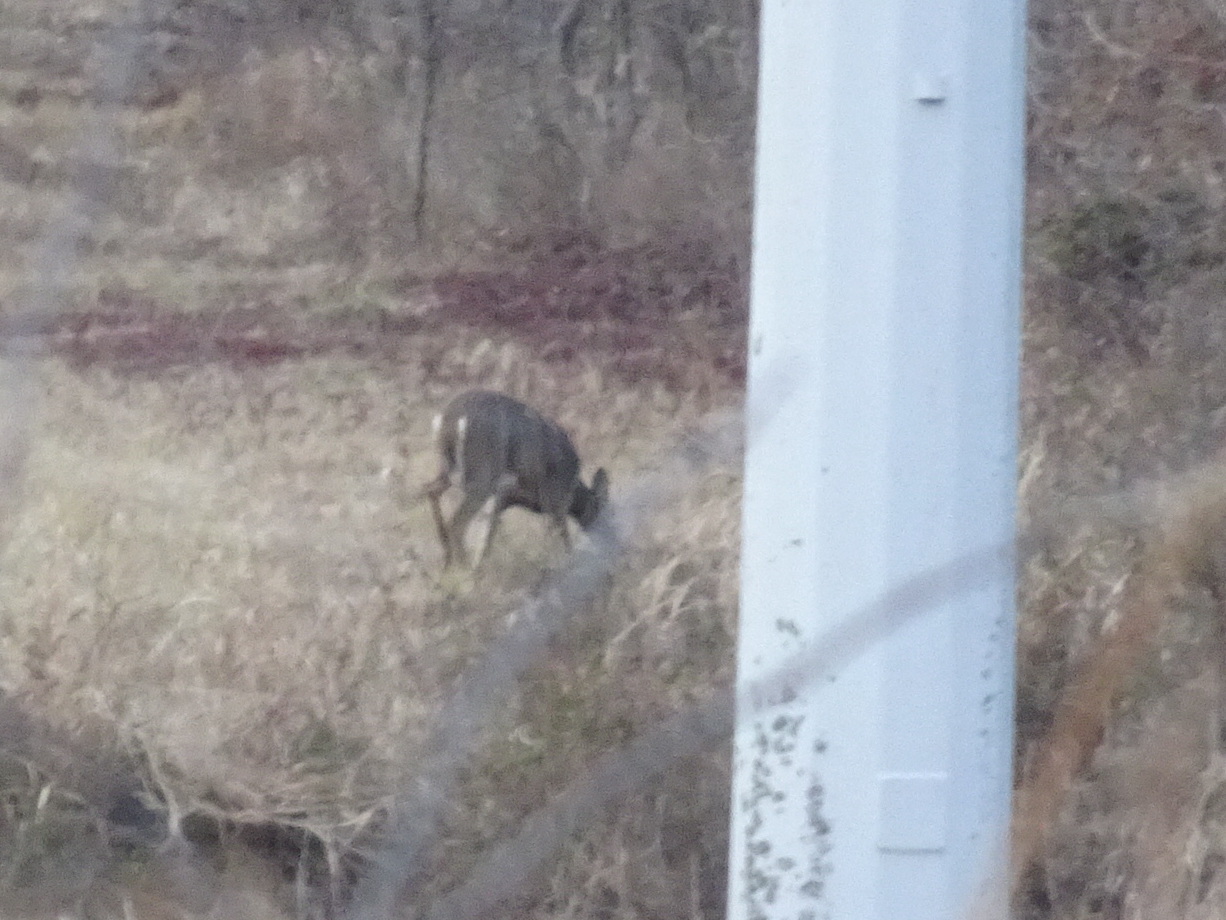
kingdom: Animalia
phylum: Chordata
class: Mammalia
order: Artiodactyla
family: Cervidae
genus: Odocoileus
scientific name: Odocoileus virginianus
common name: White-tailed deer
